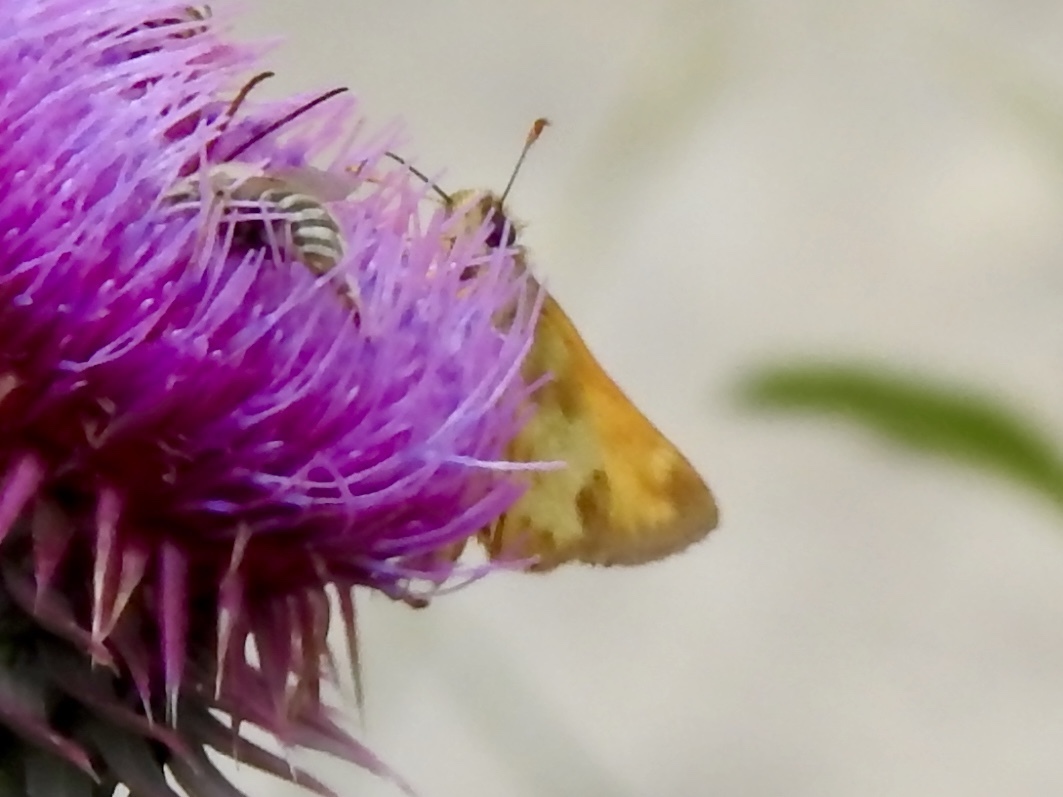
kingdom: Animalia
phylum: Arthropoda
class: Insecta
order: Lepidoptera
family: Hesperiidae
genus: Lon
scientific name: Lon taxiles
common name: Taxiles skipper
